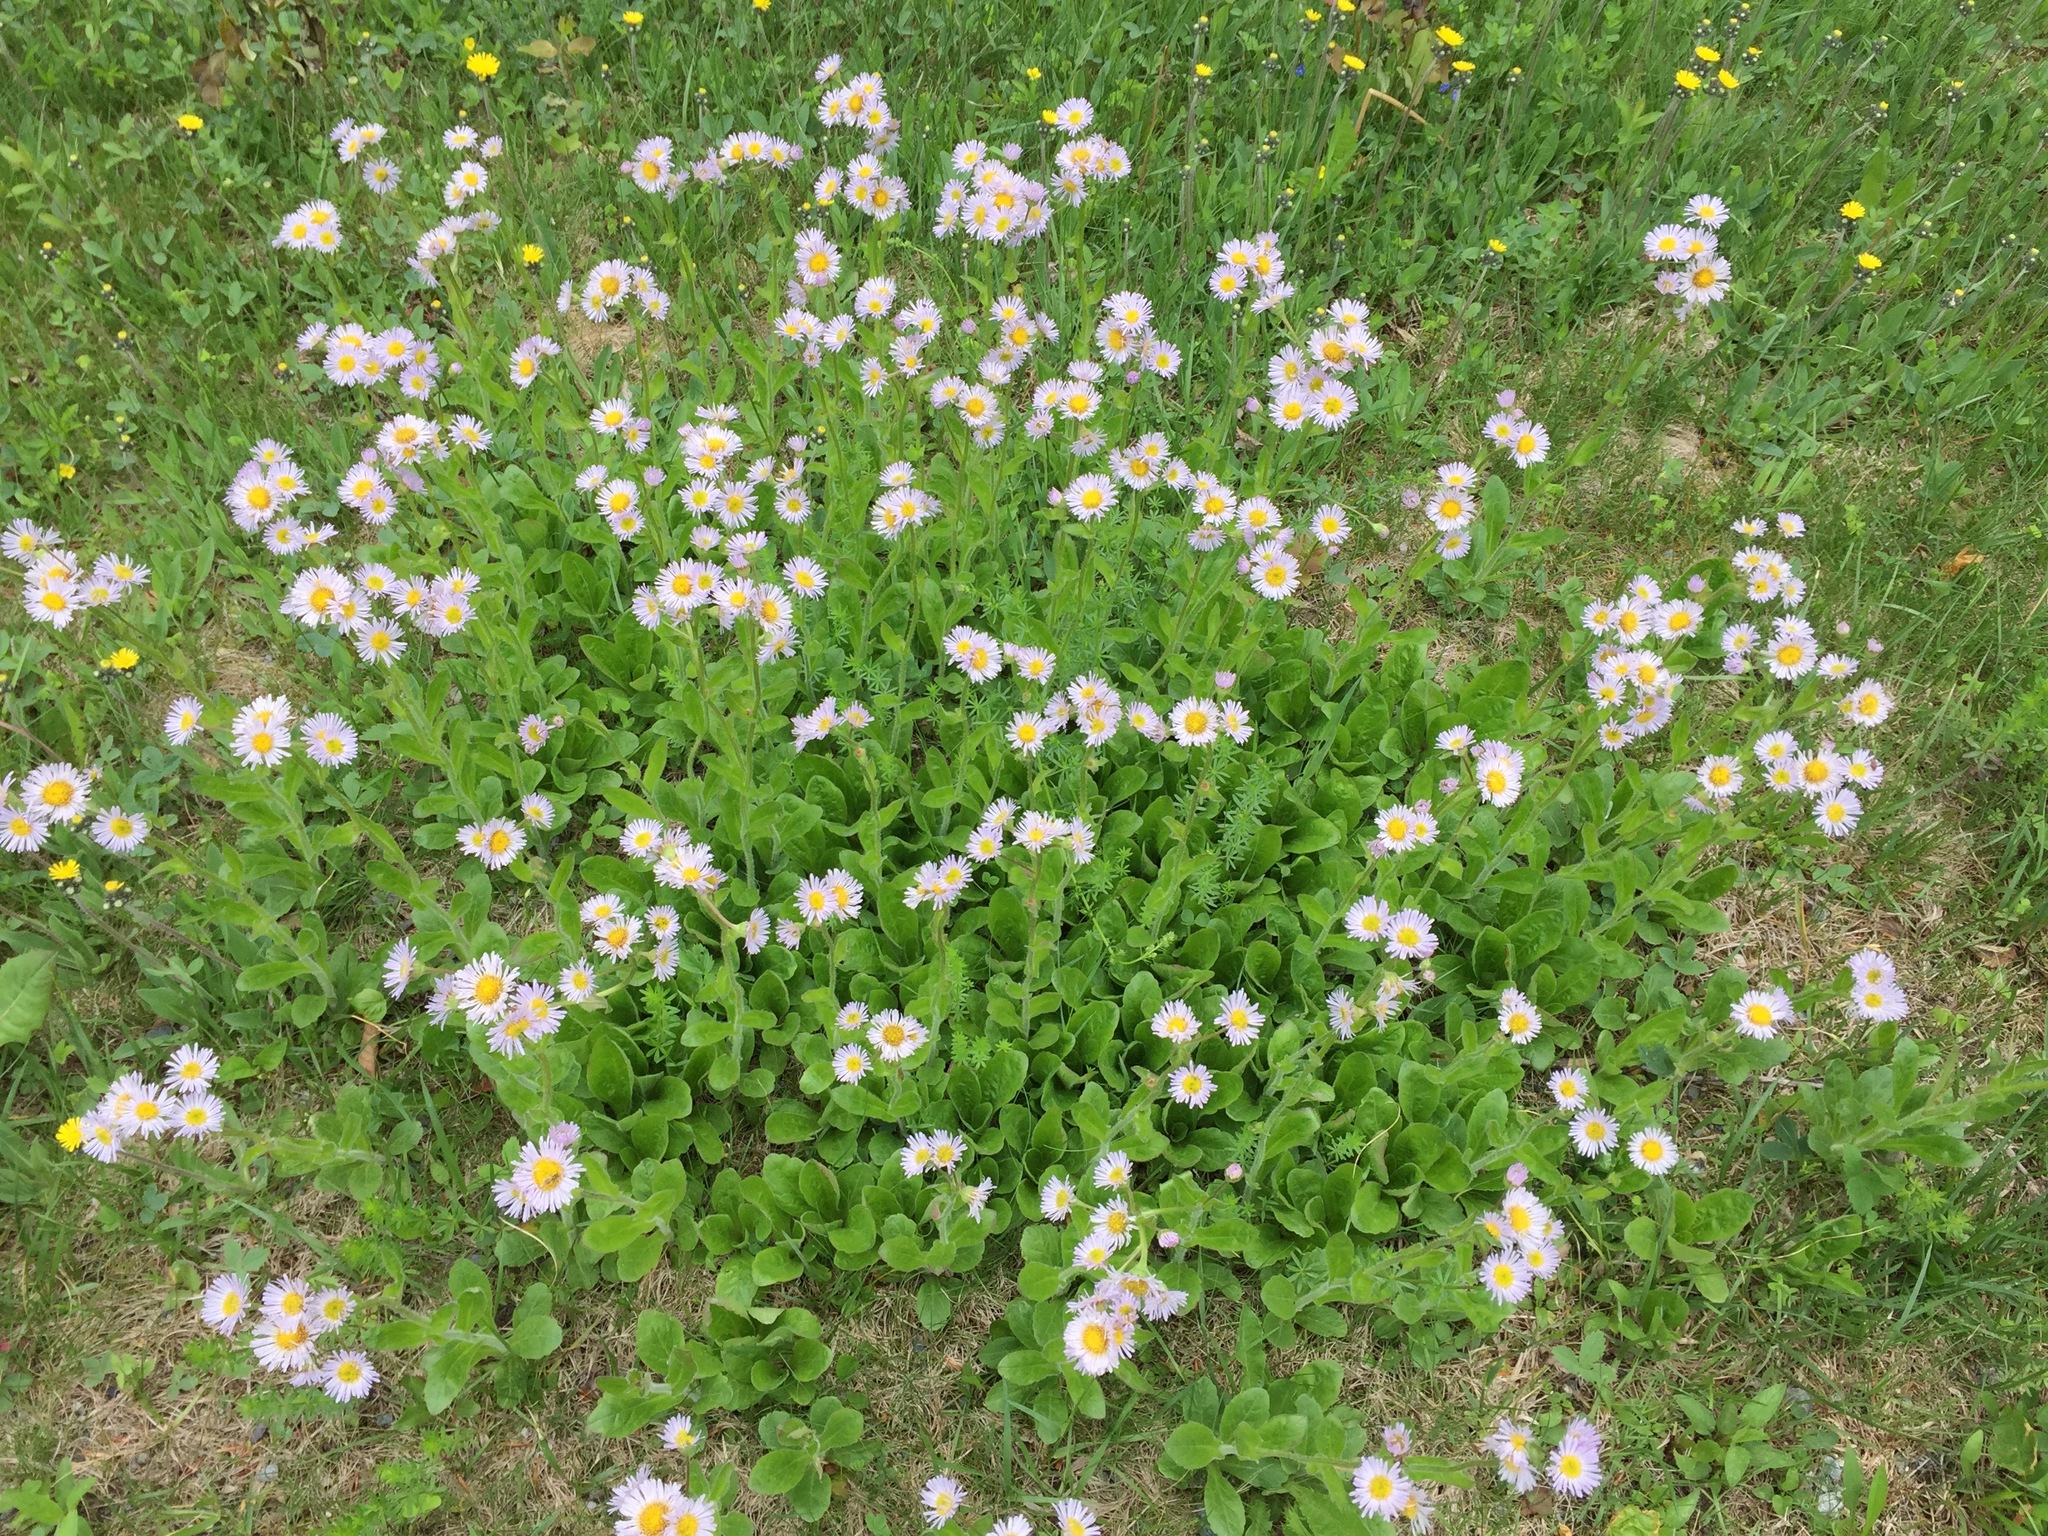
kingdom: Plantae
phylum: Tracheophyta
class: Magnoliopsida
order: Asterales
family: Asteraceae
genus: Erigeron
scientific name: Erigeron pulchellus
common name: Hairy fleabane
